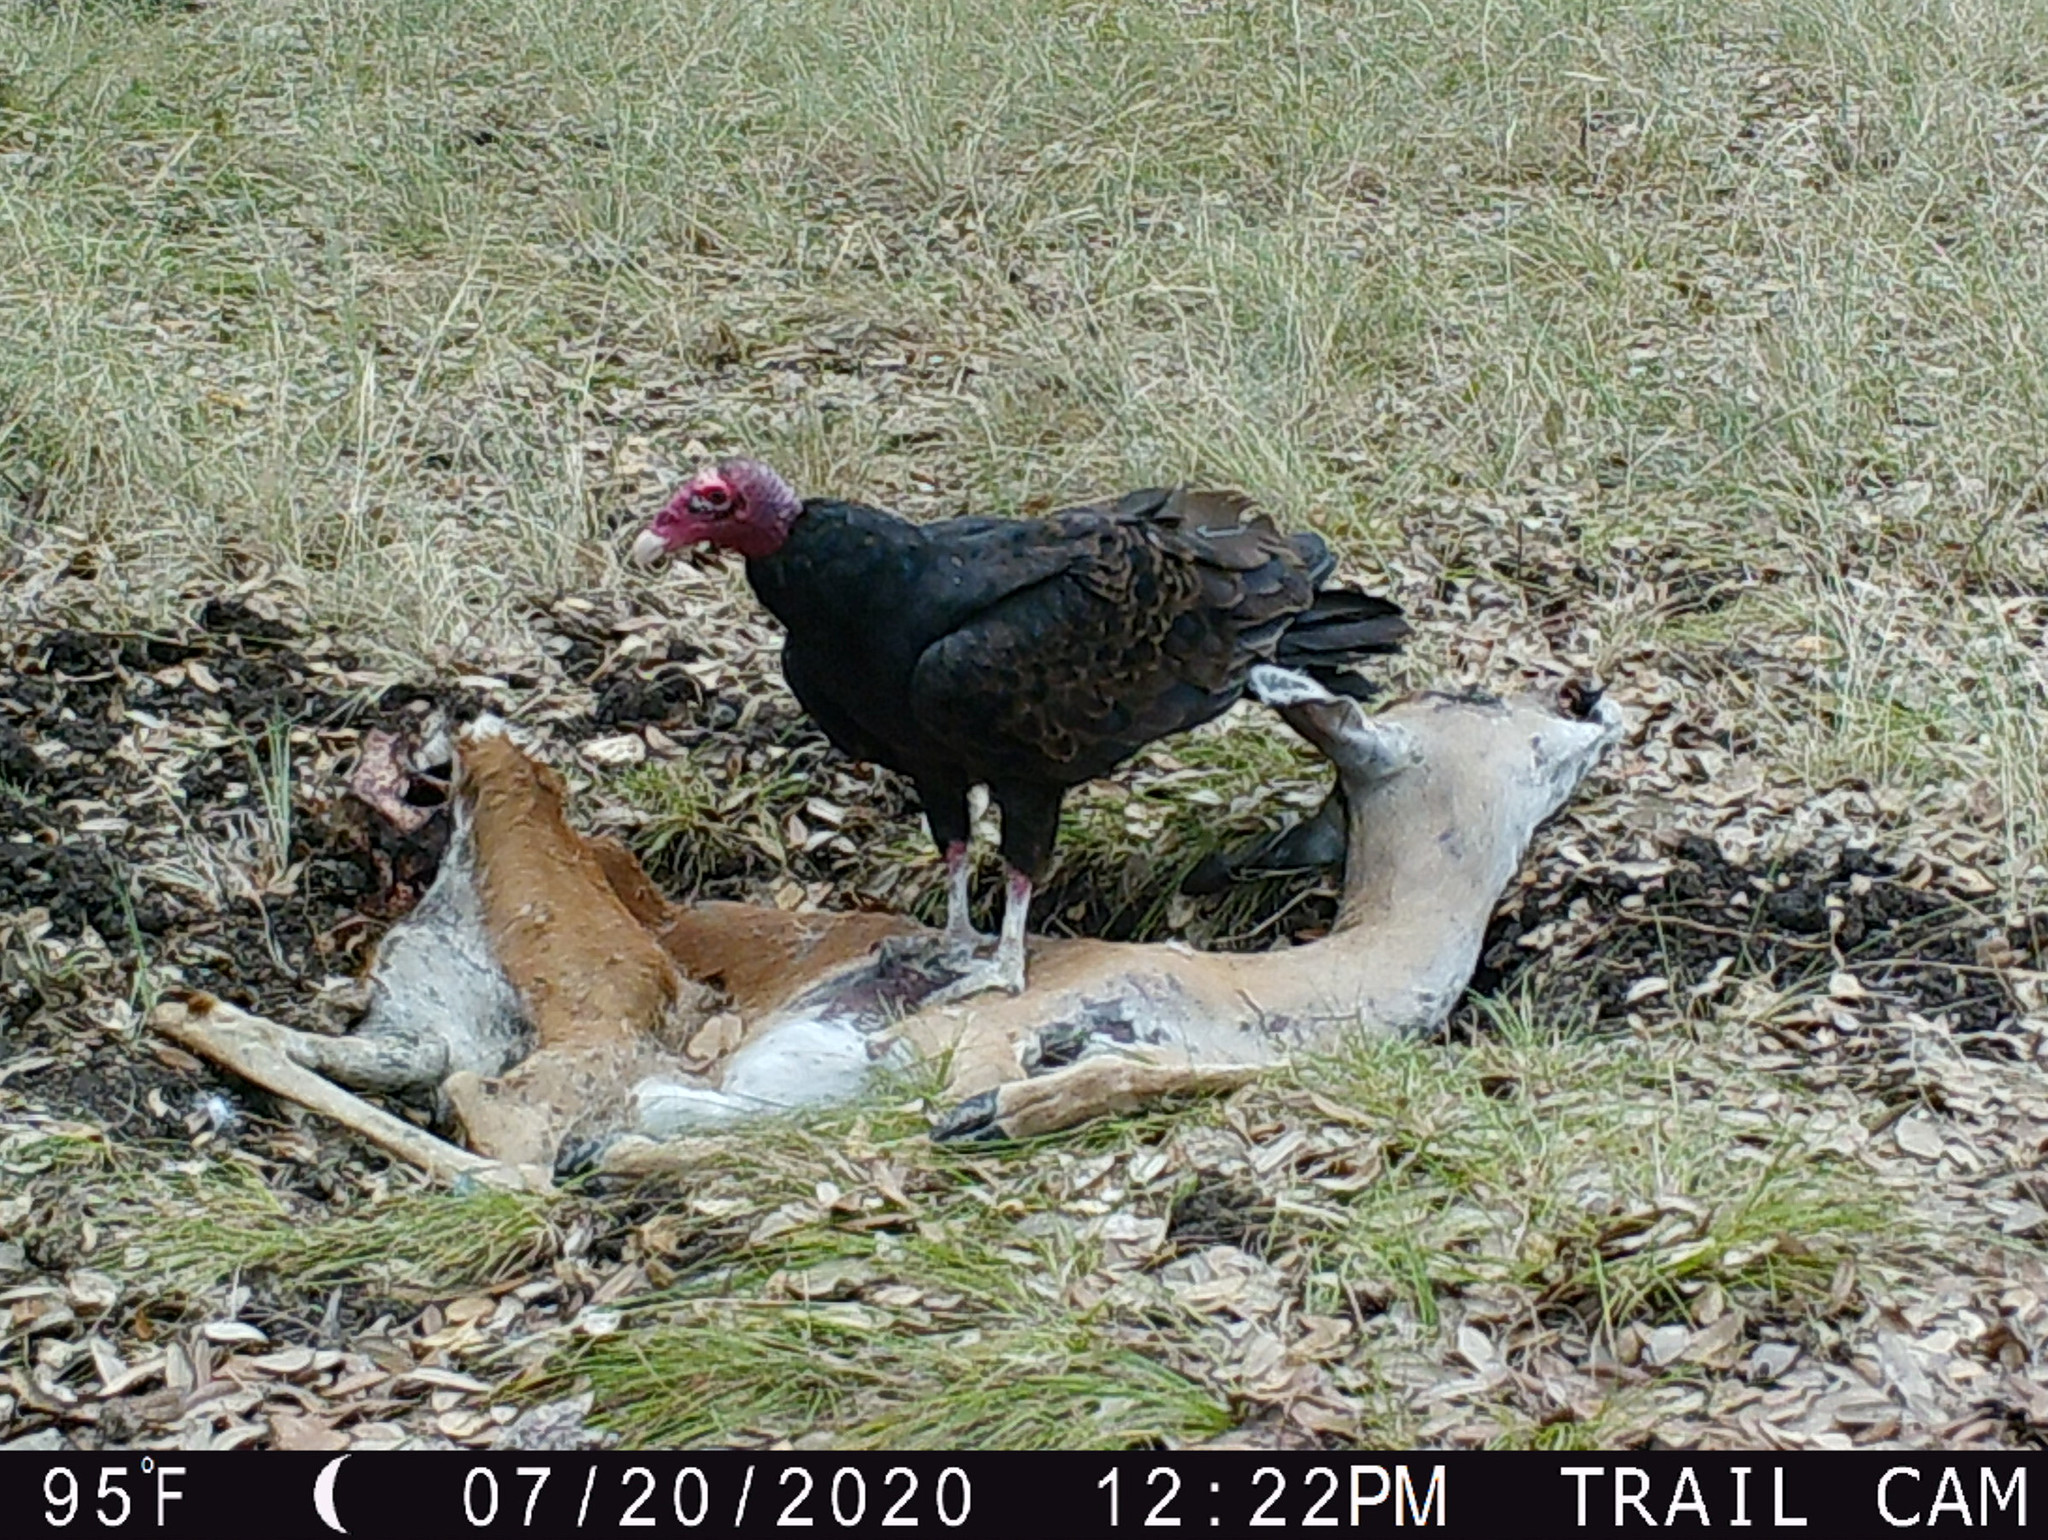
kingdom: Animalia
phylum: Chordata
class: Aves
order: Accipitriformes
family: Cathartidae
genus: Cathartes
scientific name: Cathartes aura
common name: Turkey vulture
